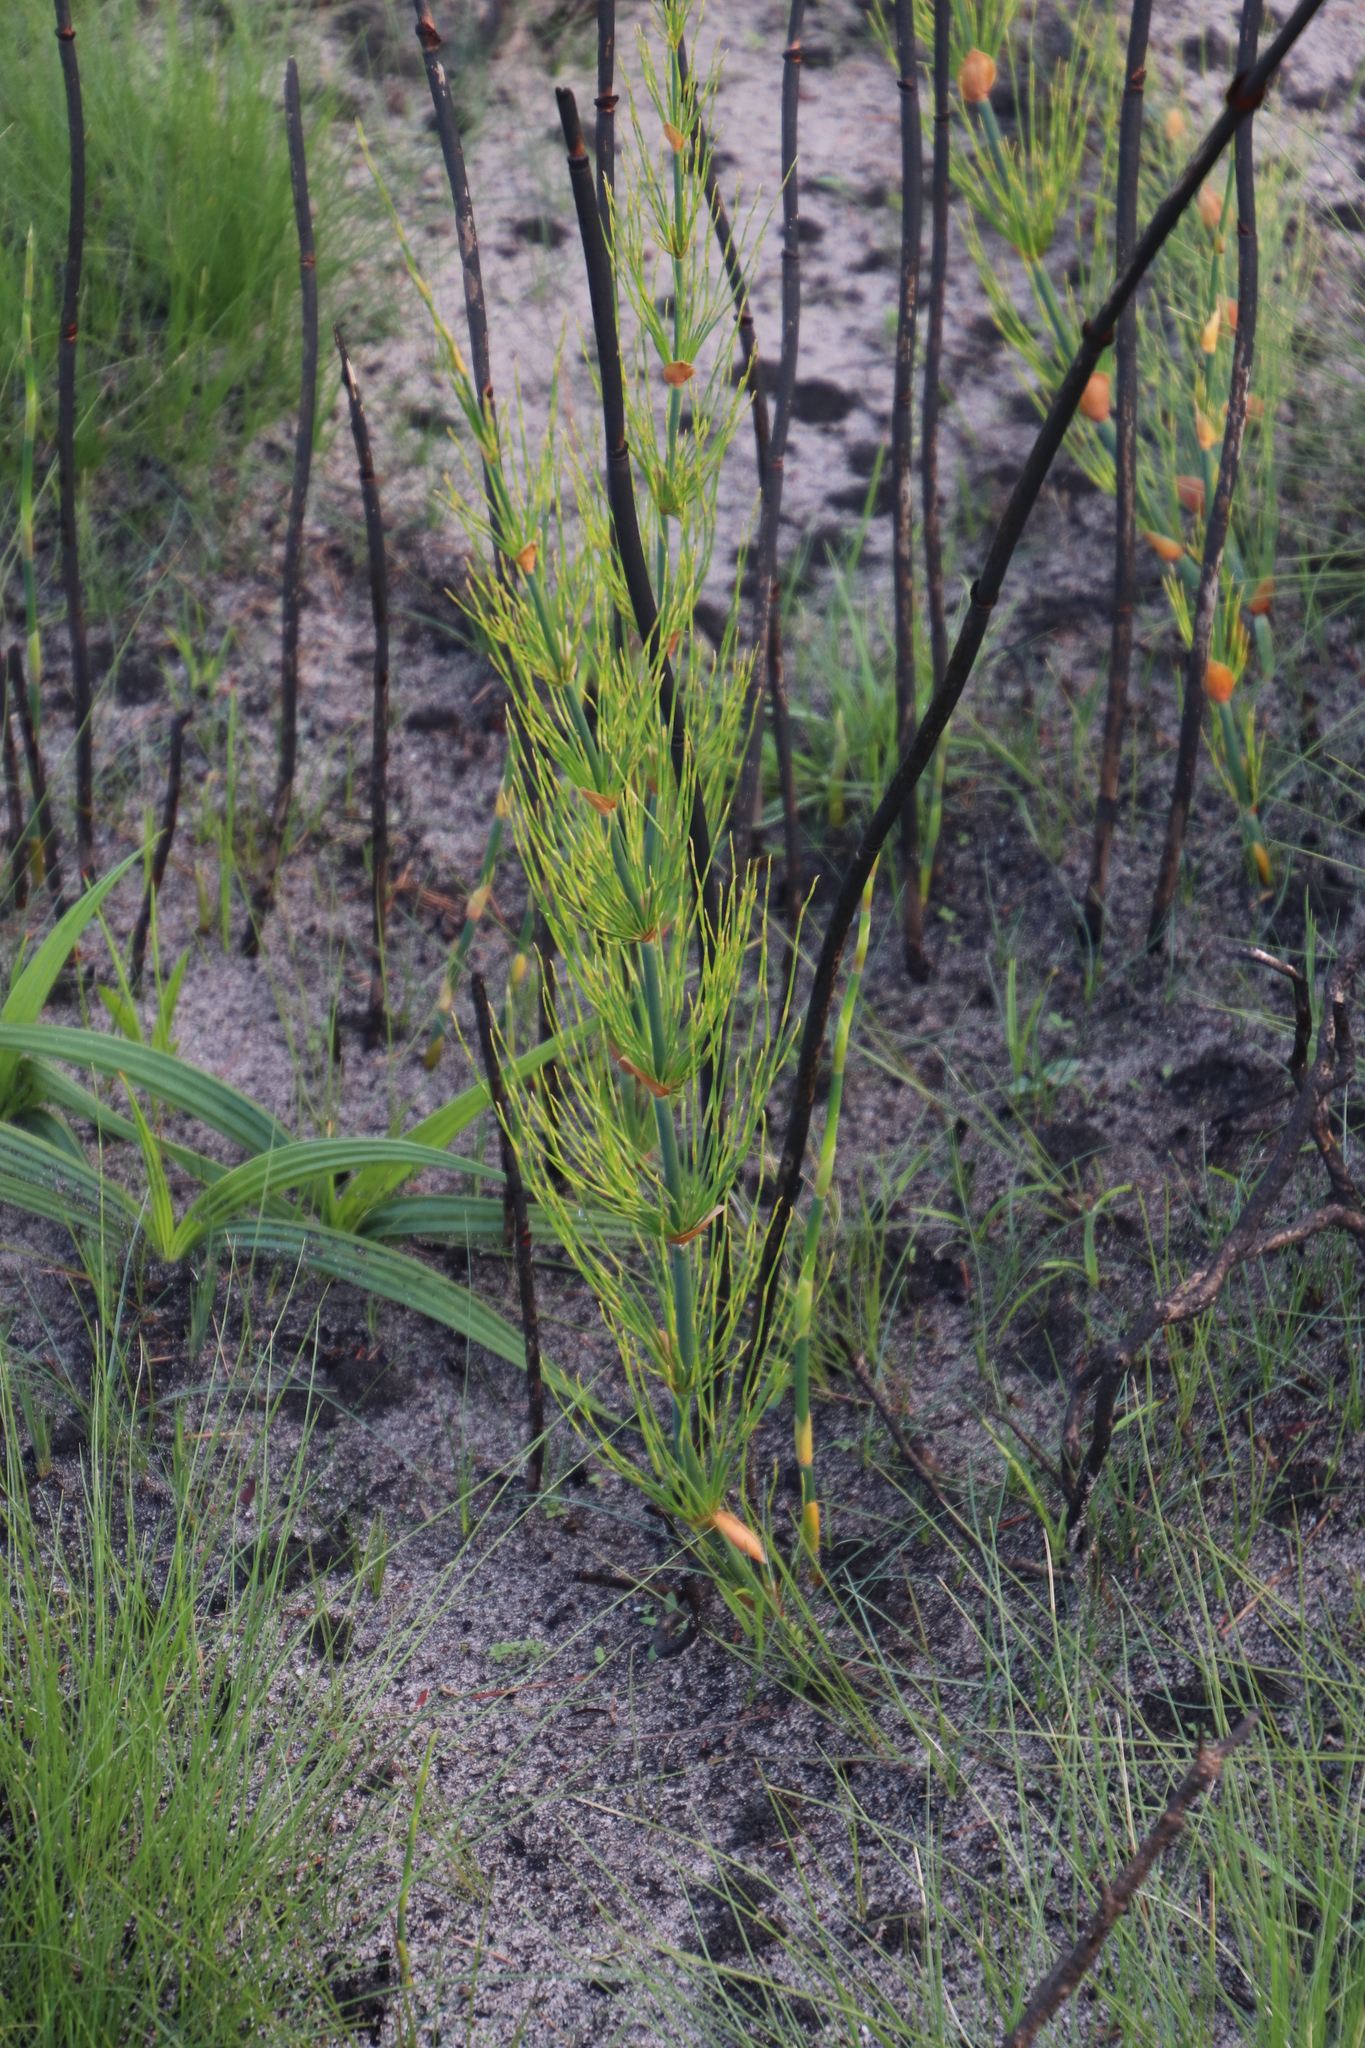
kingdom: Plantae
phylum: Tracheophyta
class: Liliopsida
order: Poales
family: Restionaceae
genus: Elegia
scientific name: Elegia capensis
